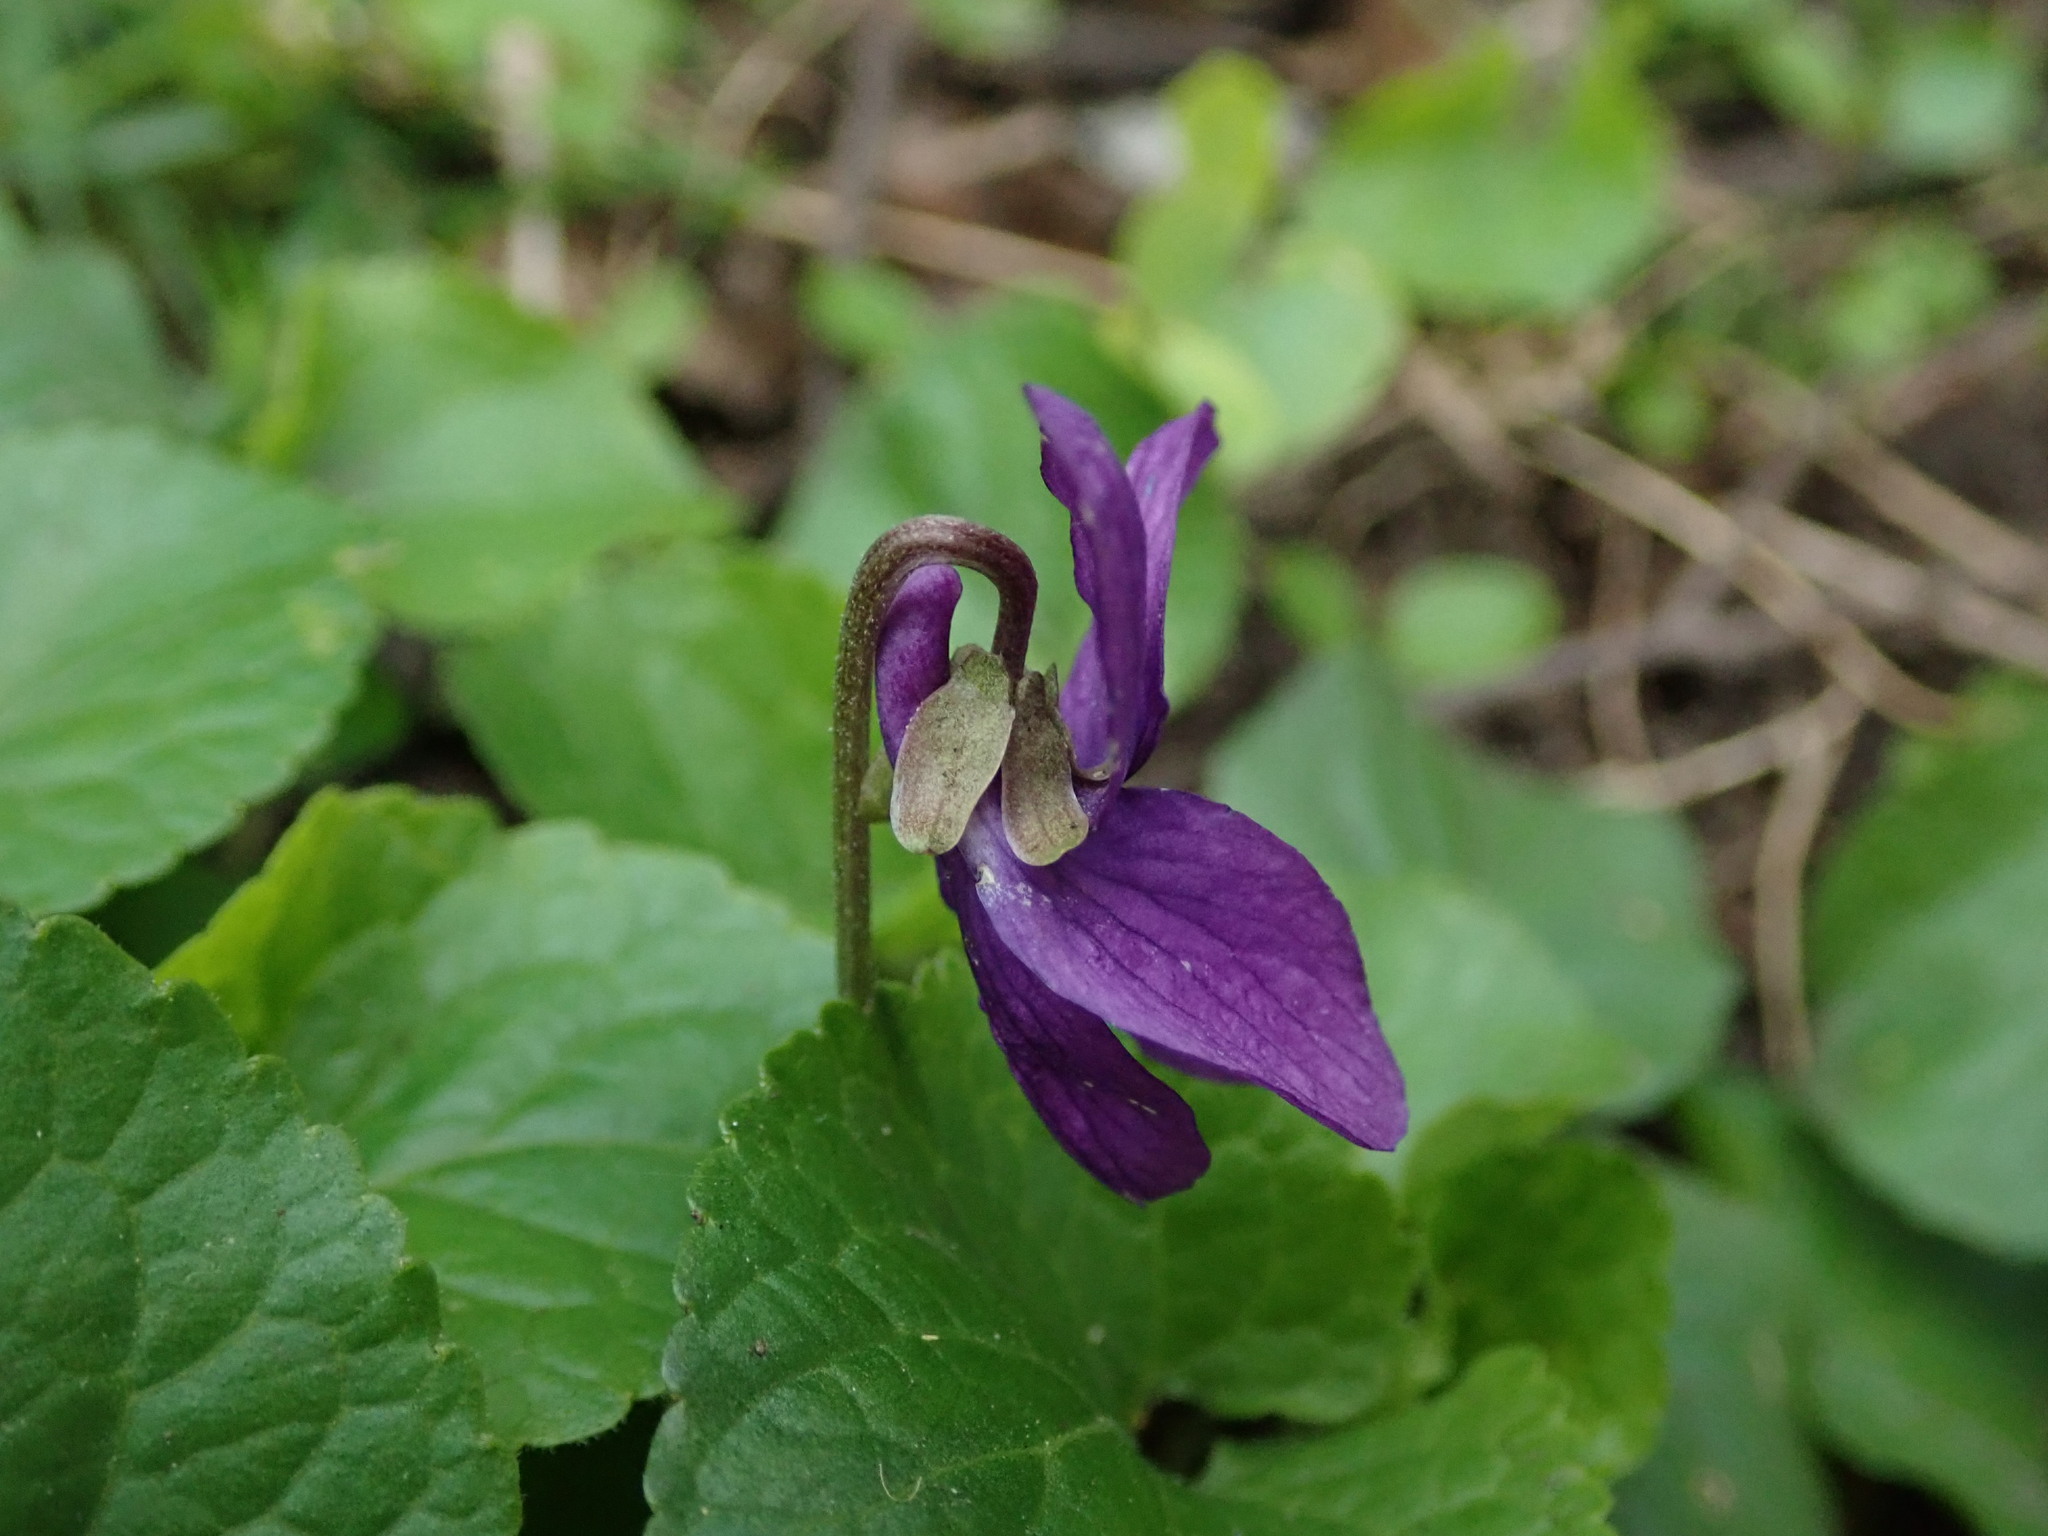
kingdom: Plantae
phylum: Tracheophyta
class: Magnoliopsida
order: Malpighiales
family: Violaceae
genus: Viola
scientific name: Viola odorata
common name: Sweet violet
